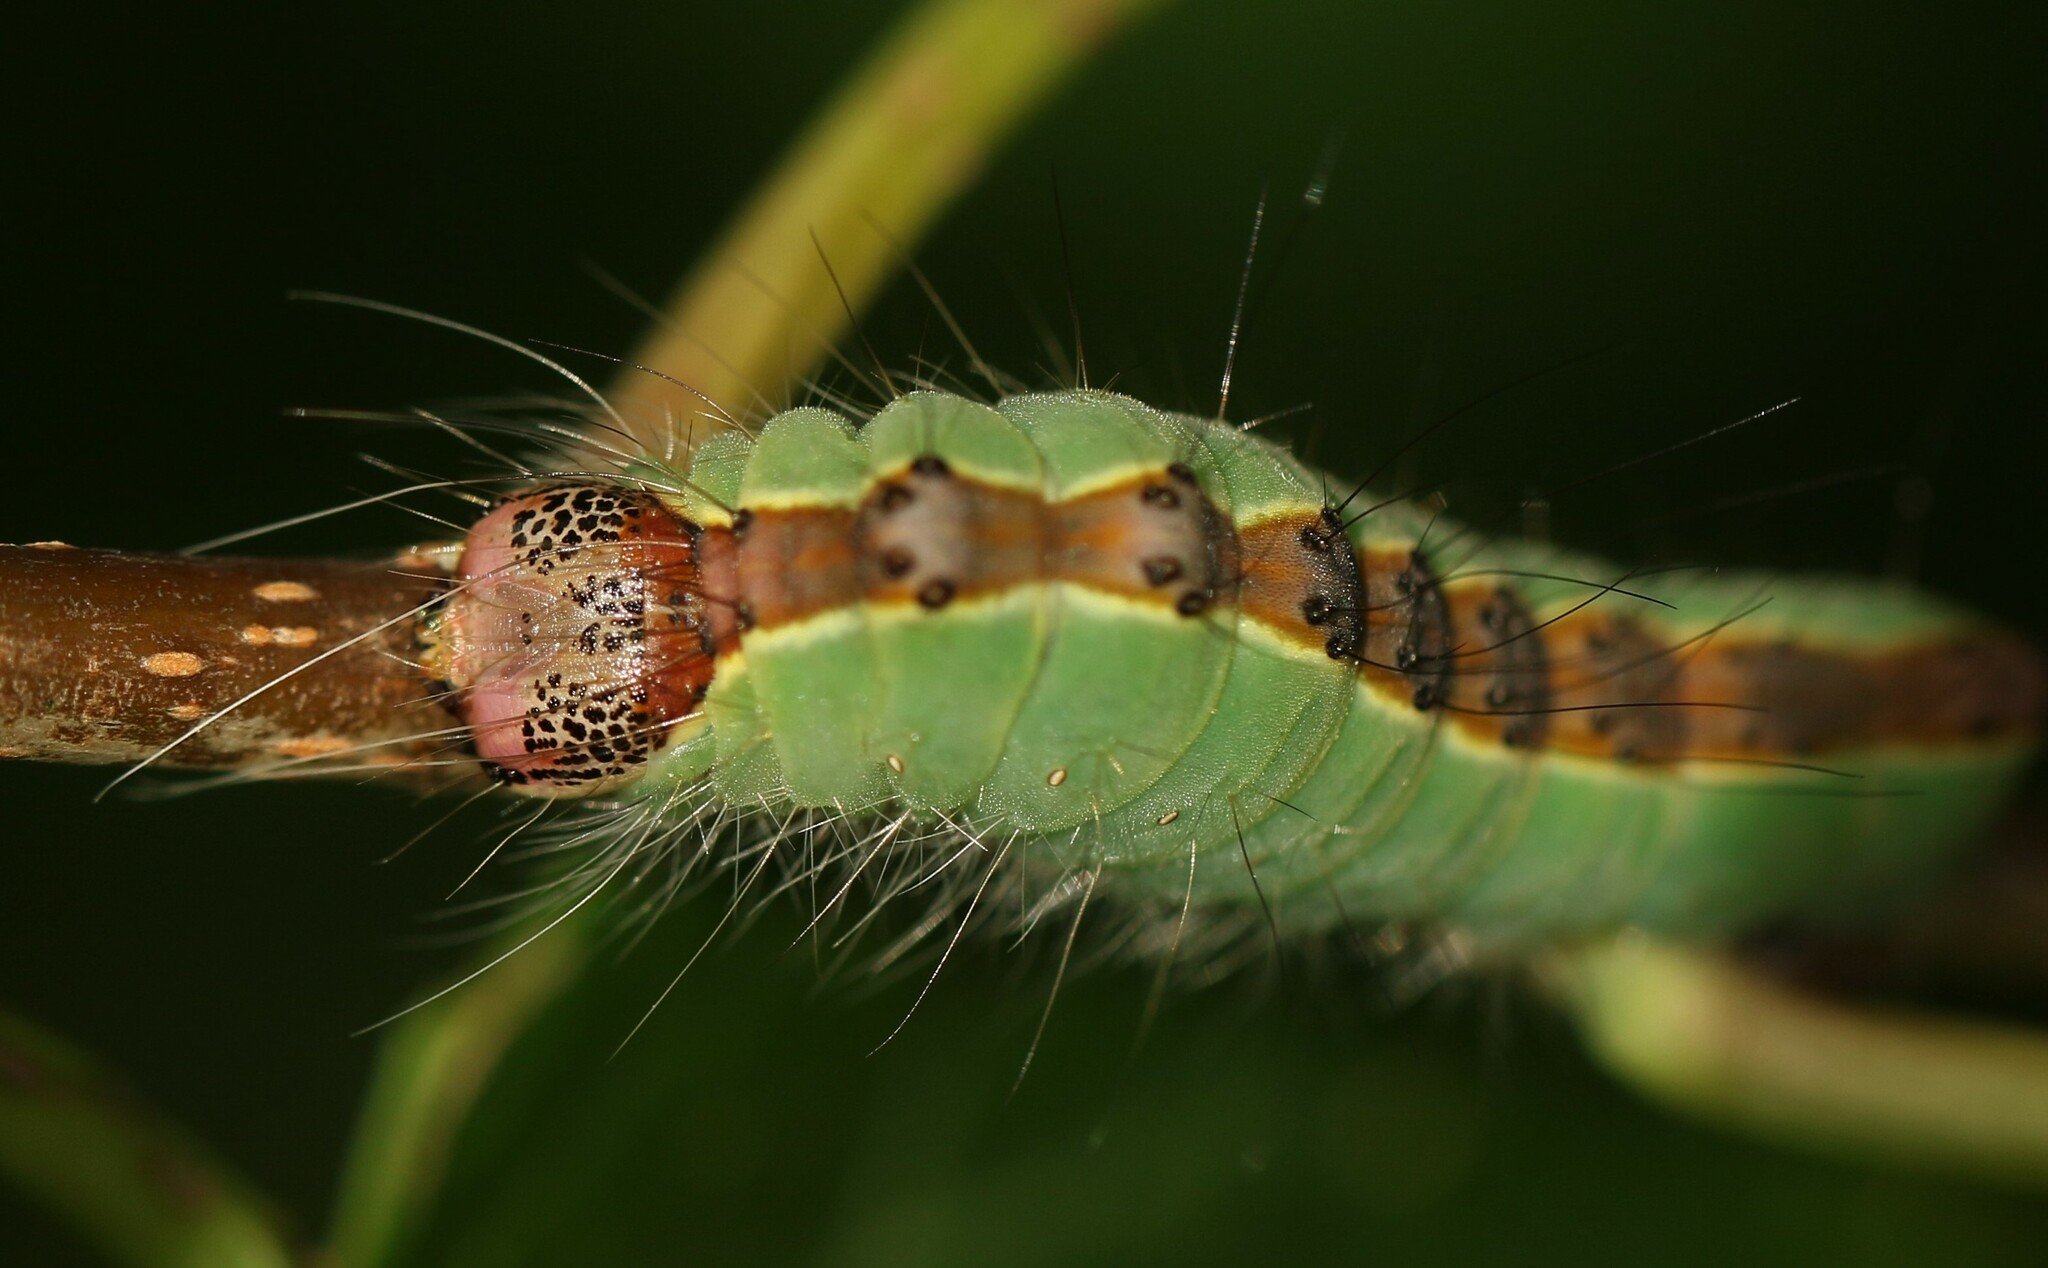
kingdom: Animalia
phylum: Arthropoda
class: Insecta
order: Lepidoptera
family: Noctuidae
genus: Acronicta
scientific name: Acronicta superans
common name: Splendid dagger
